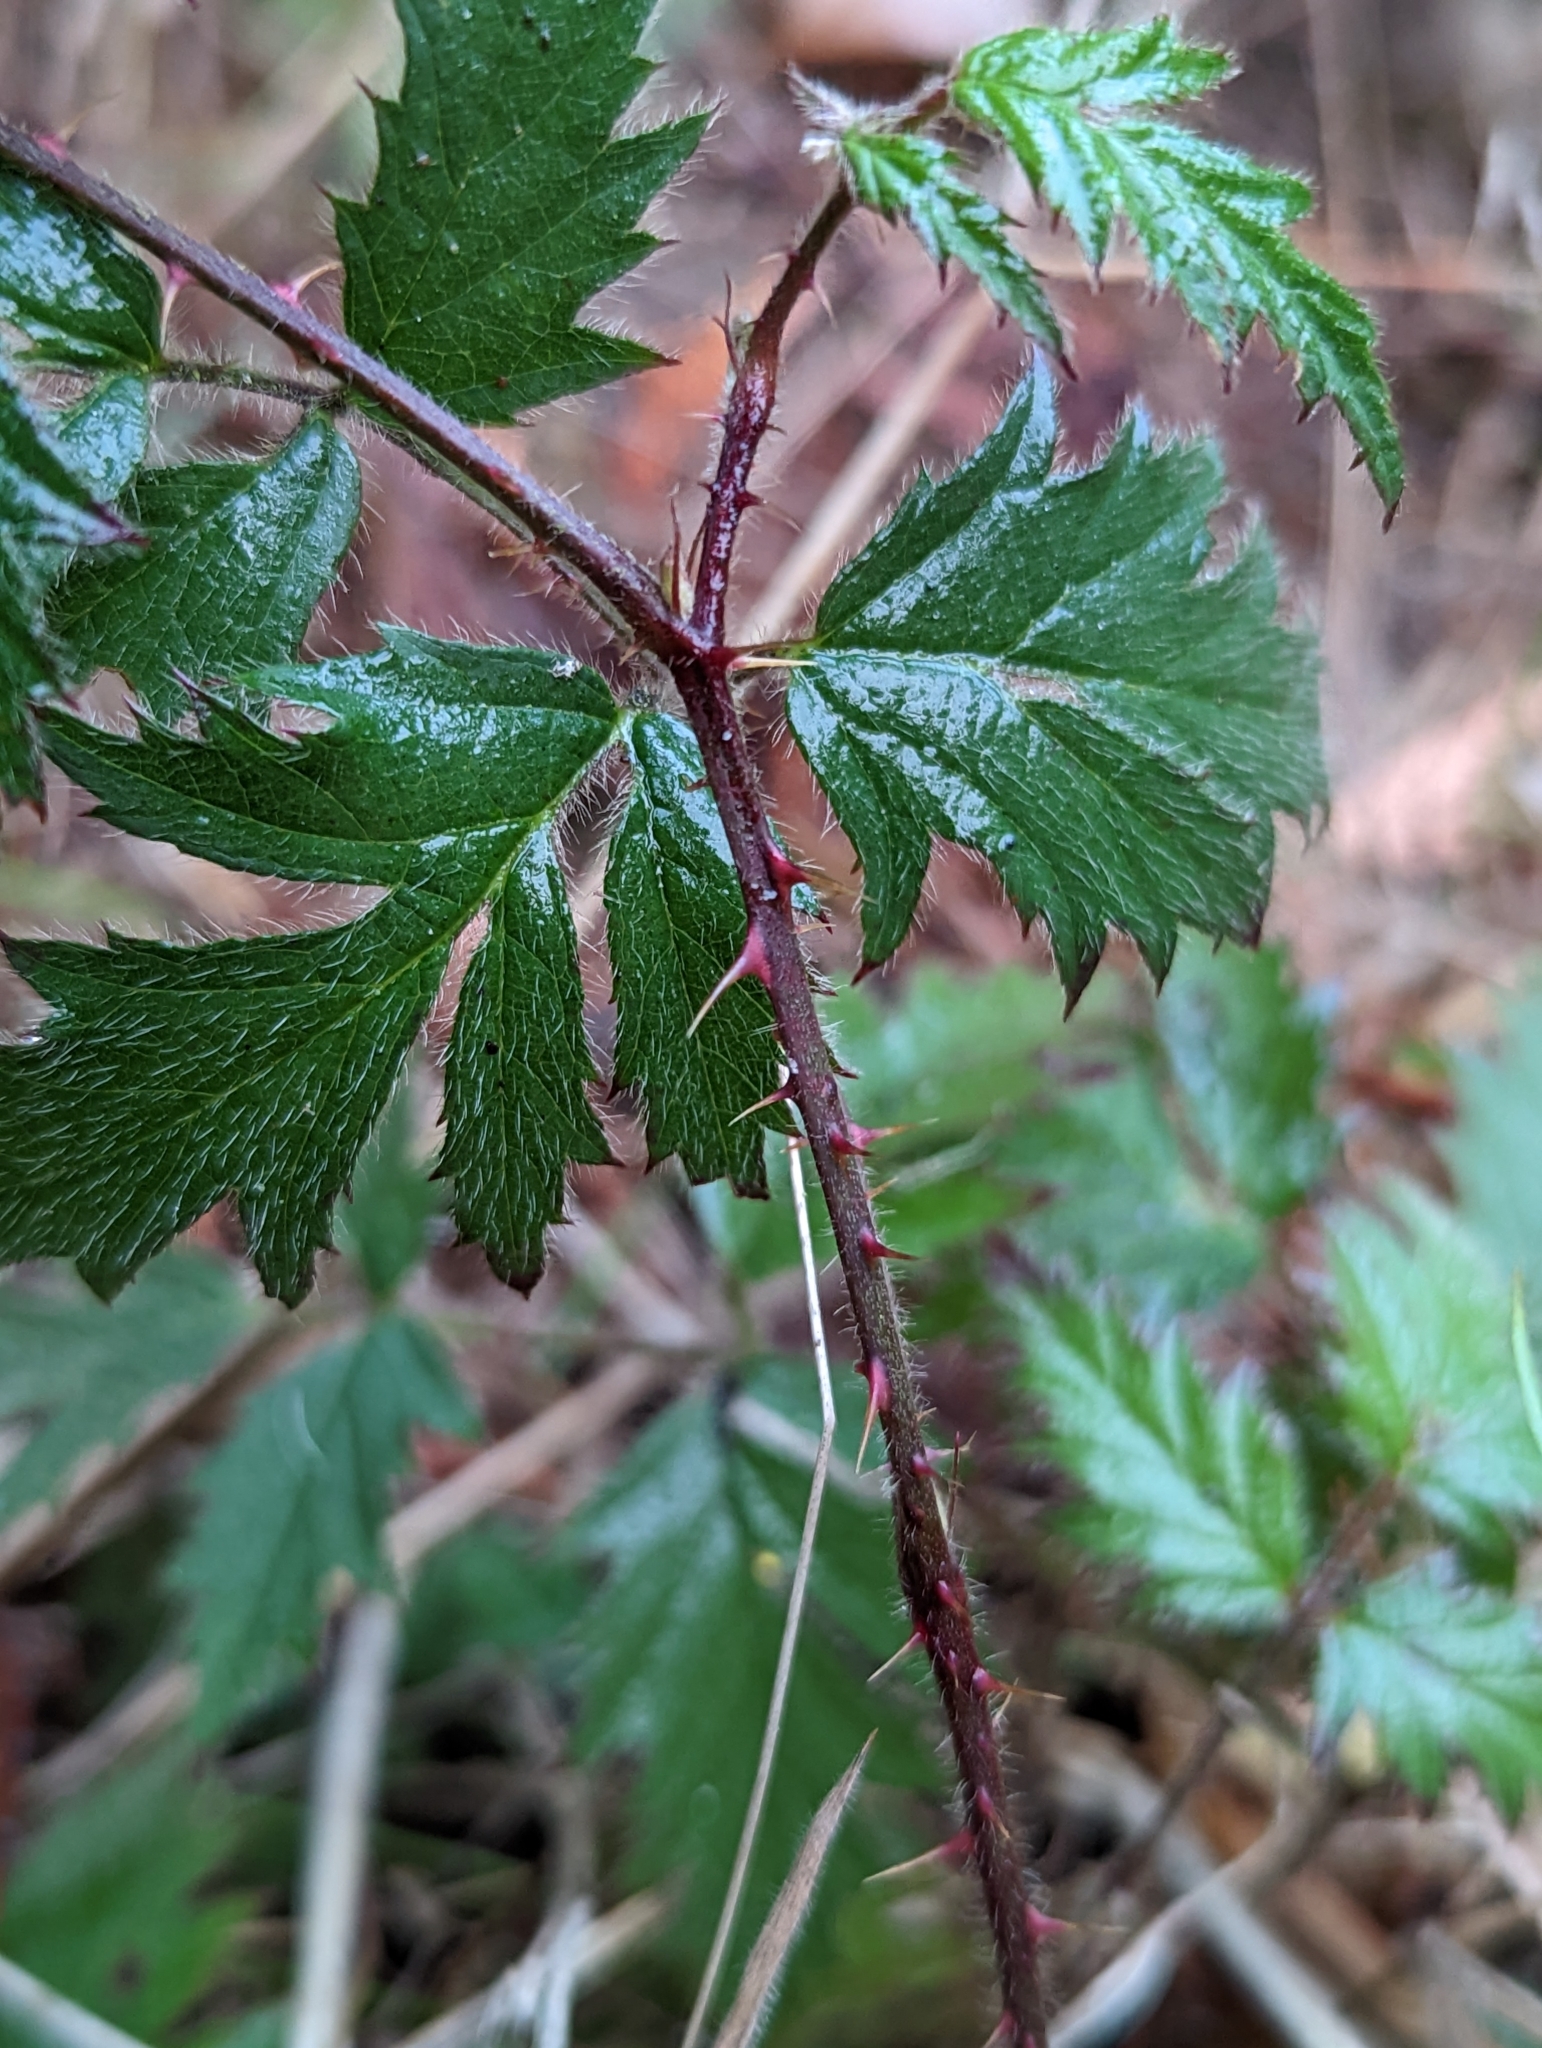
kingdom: Plantae
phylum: Tracheophyta
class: Magnoliopsida
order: Rosales
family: Rosaceae
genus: Rubus
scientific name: Rubus laciniatus
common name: Evergreen blackberry
